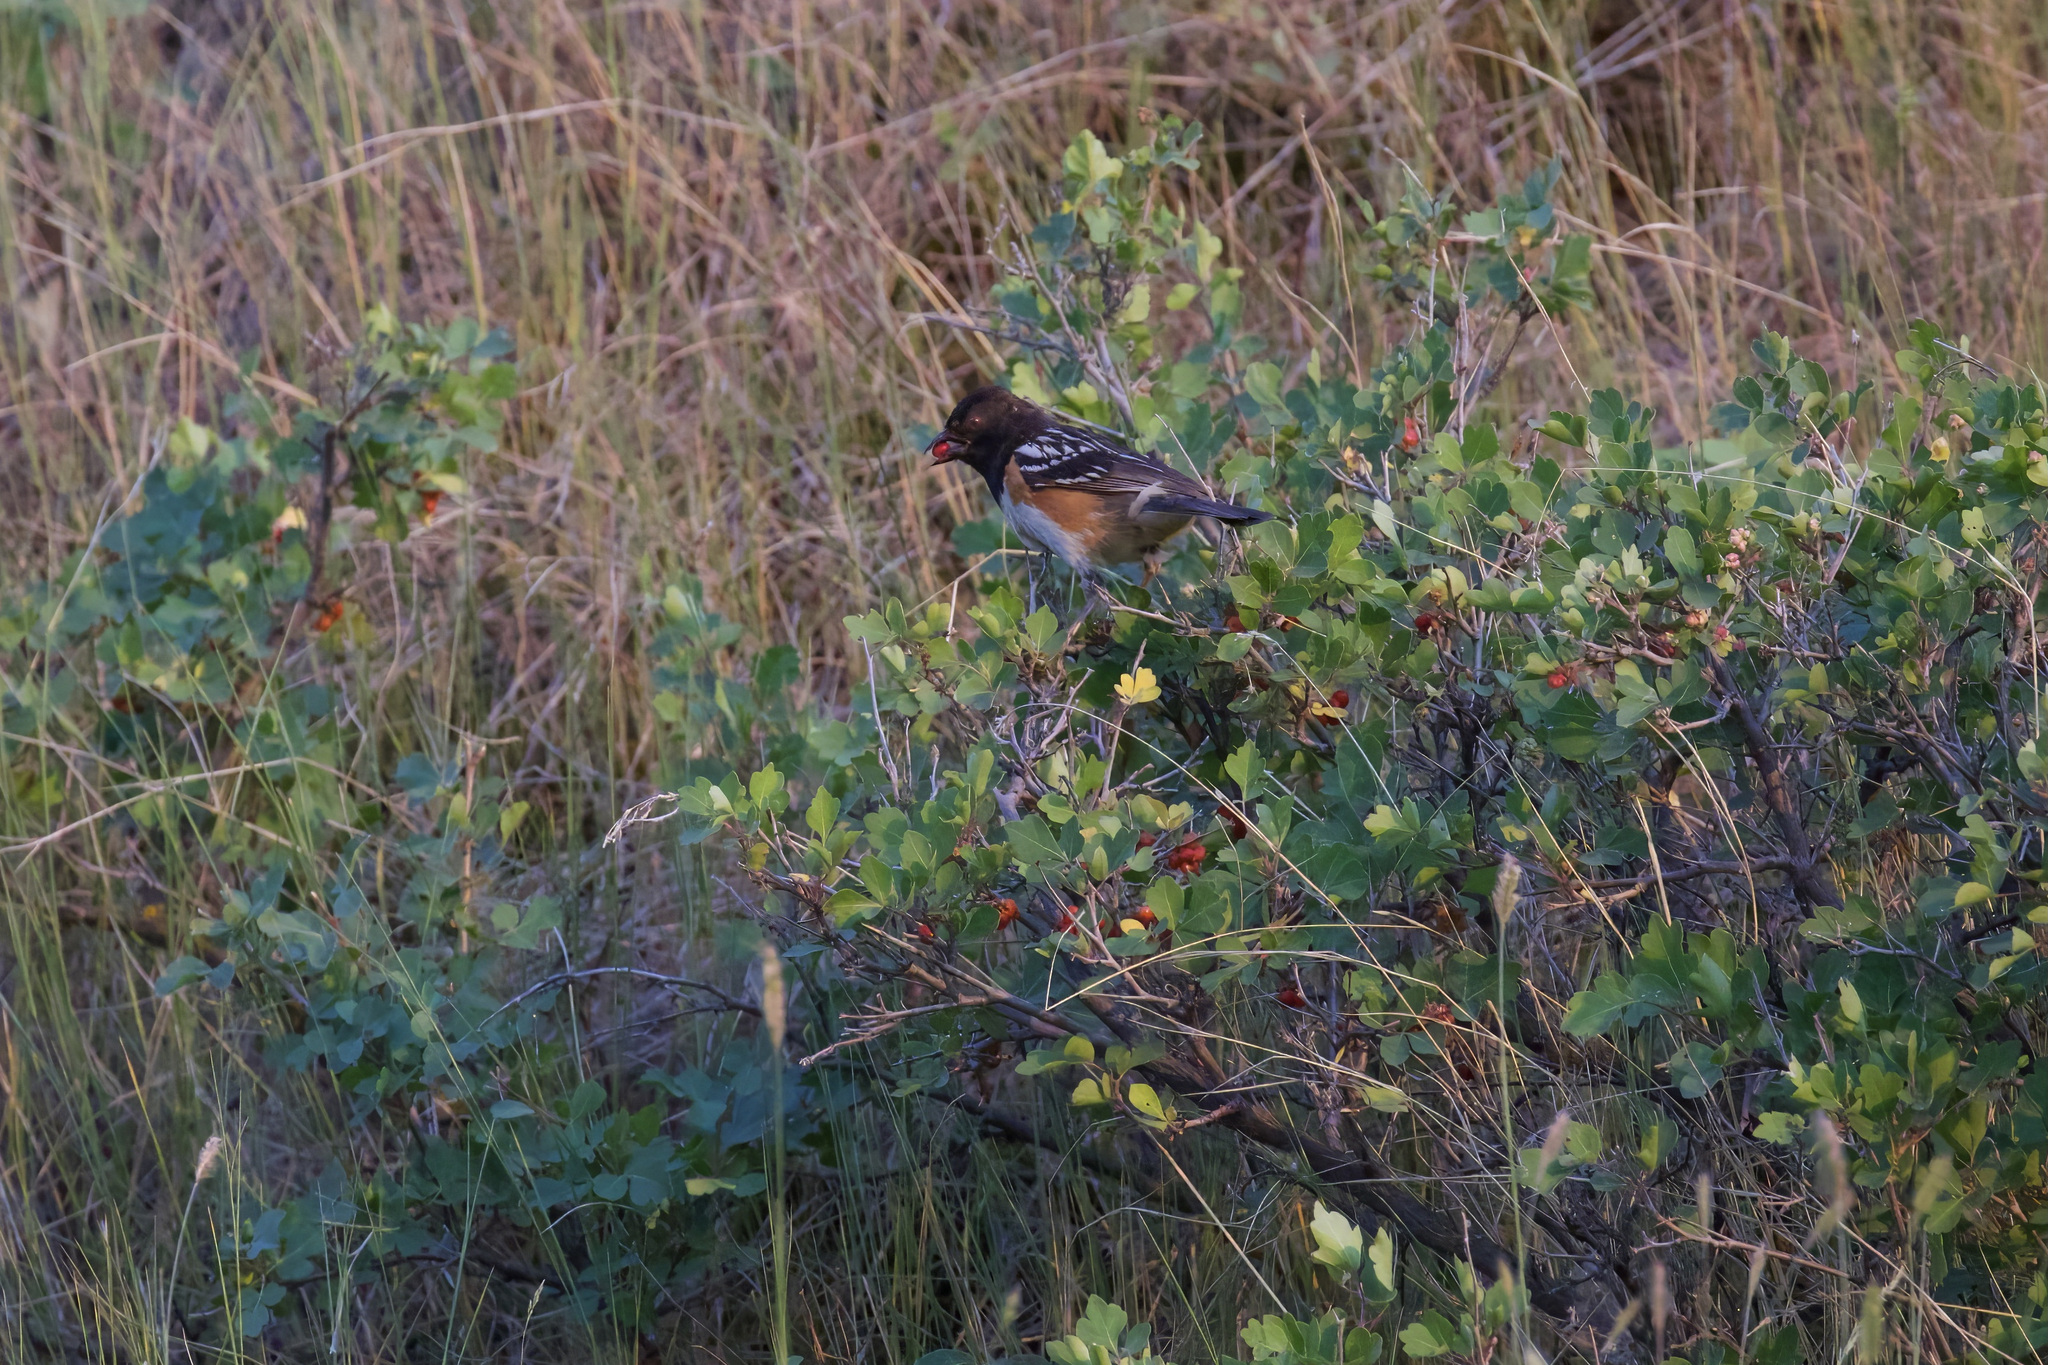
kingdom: Animalia
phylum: Chordata
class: Aves
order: Passeriformes
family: Passerellidae
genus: Pipilo
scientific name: Pipilo maculatus
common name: Spotted towhee
